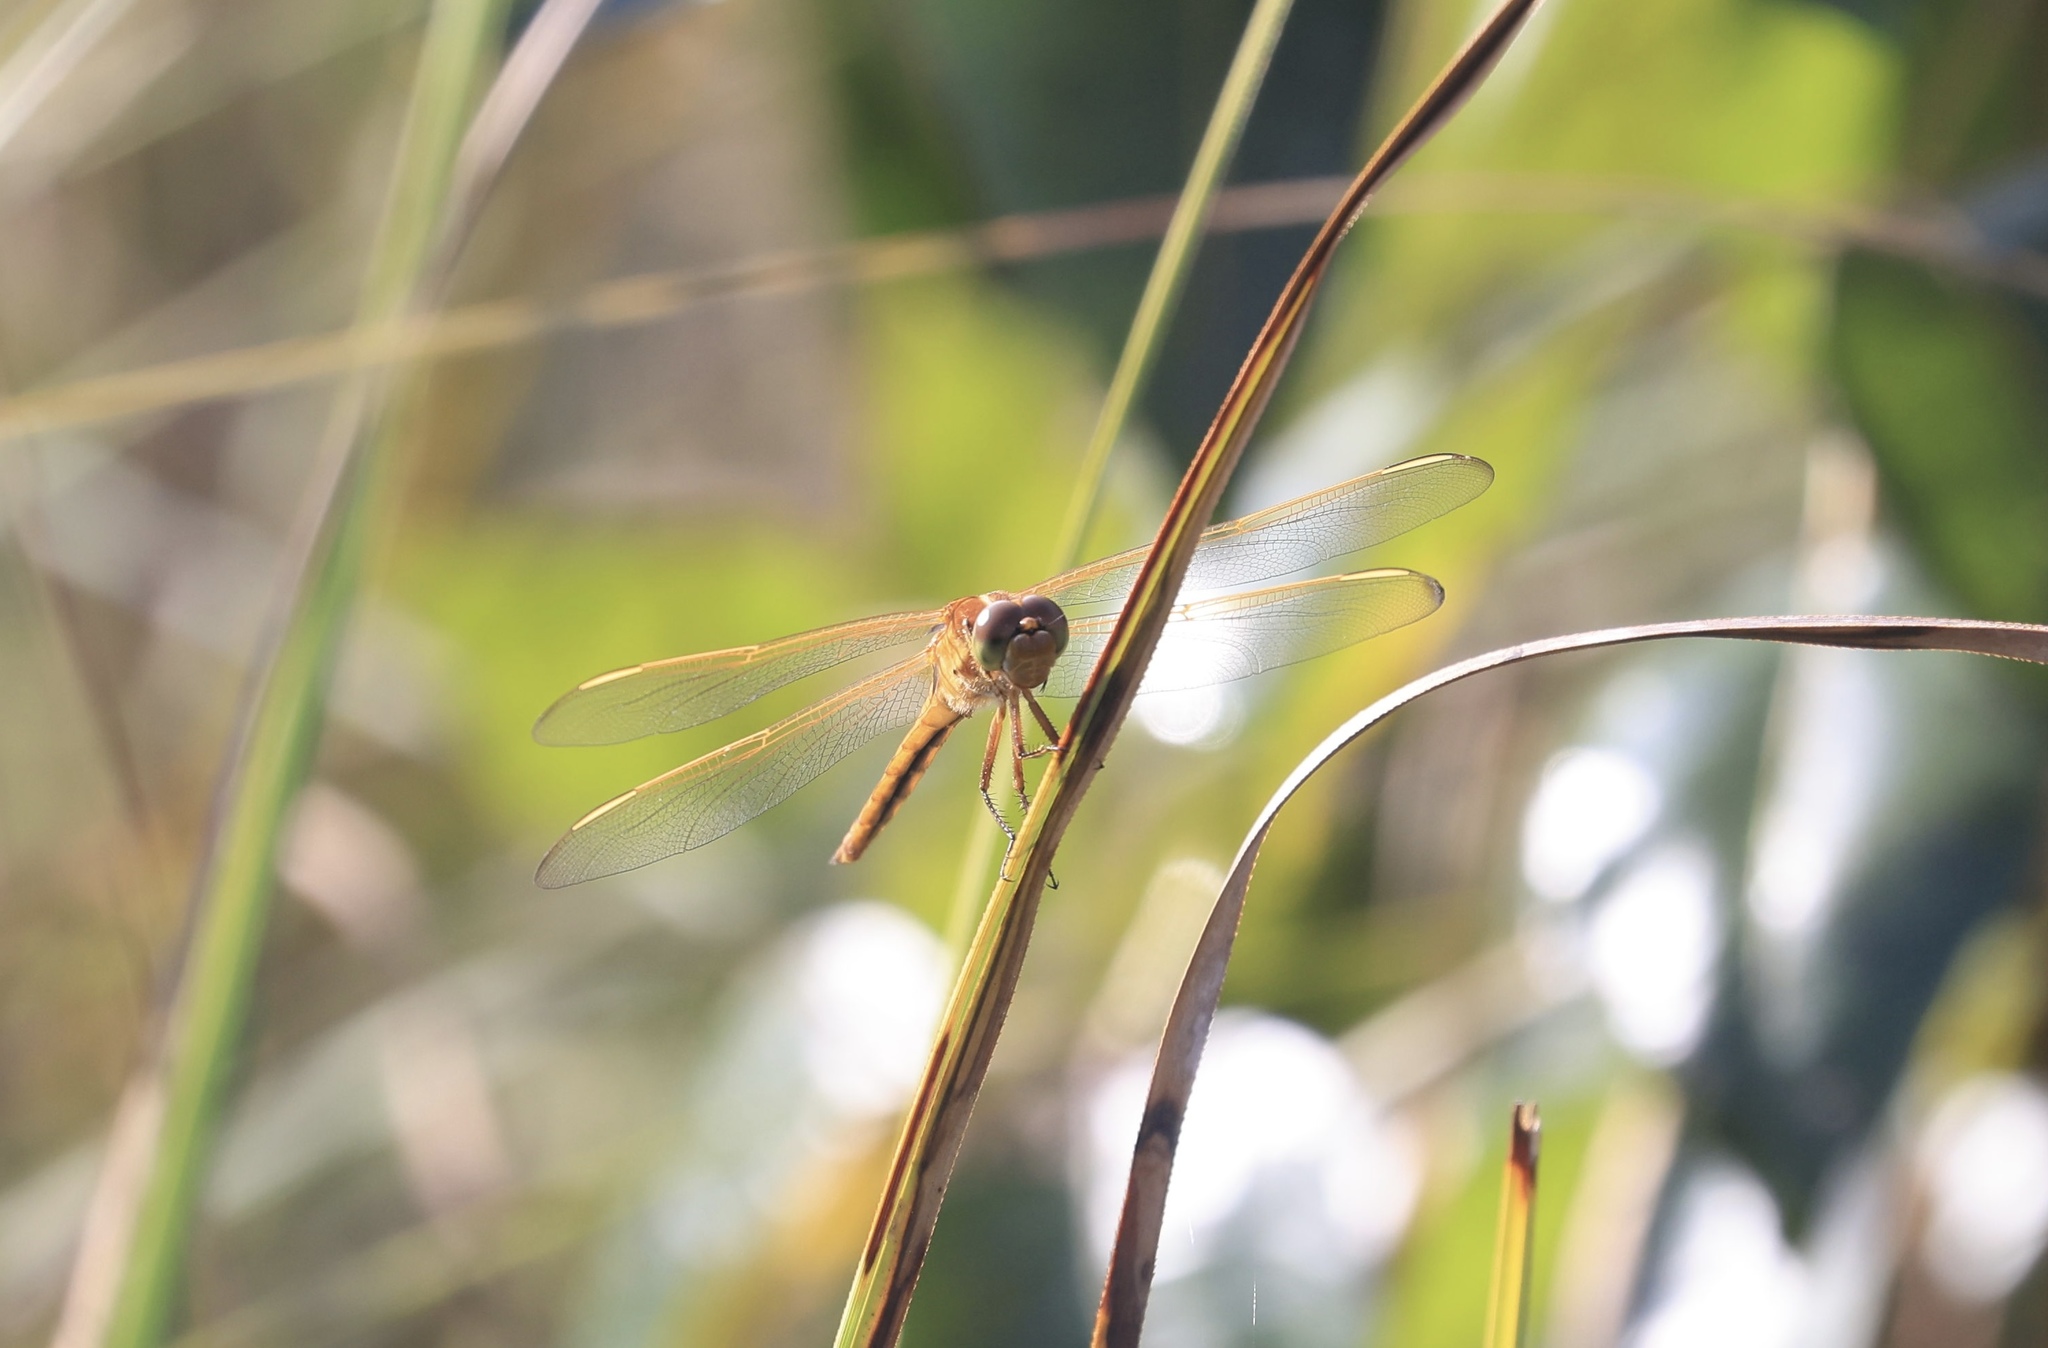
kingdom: Animalia
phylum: Arthropoda
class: Insecta
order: Odonata
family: Libellulidae
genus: Libellula
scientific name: Libellula needhami
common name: Needham's skimmer
